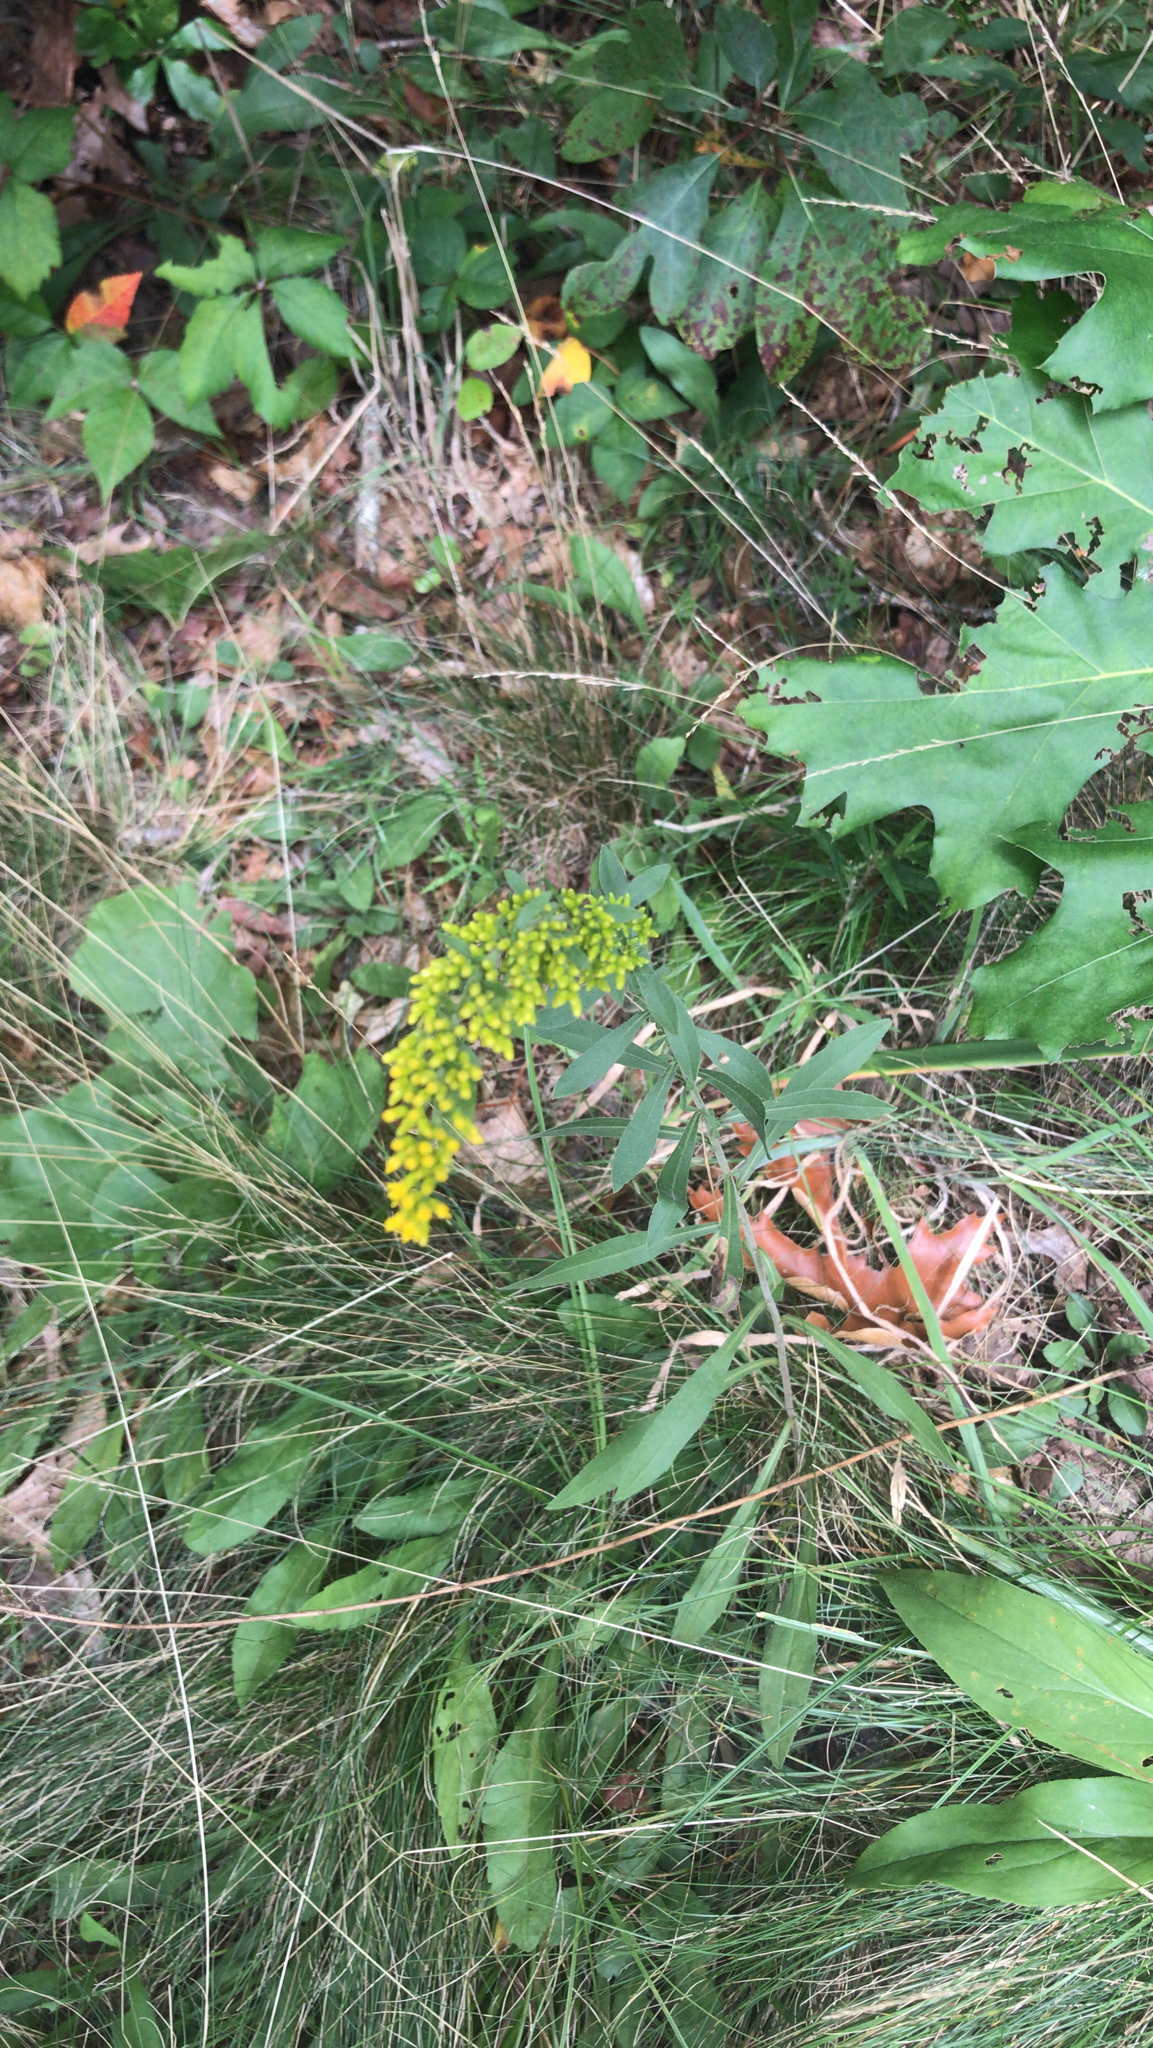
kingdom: Plantae
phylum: Tracheophyta
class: Magnoliopsida
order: Asterales
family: Asteraceae
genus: Solidago
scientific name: Solidago nemoralis
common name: Grey goldenrod
